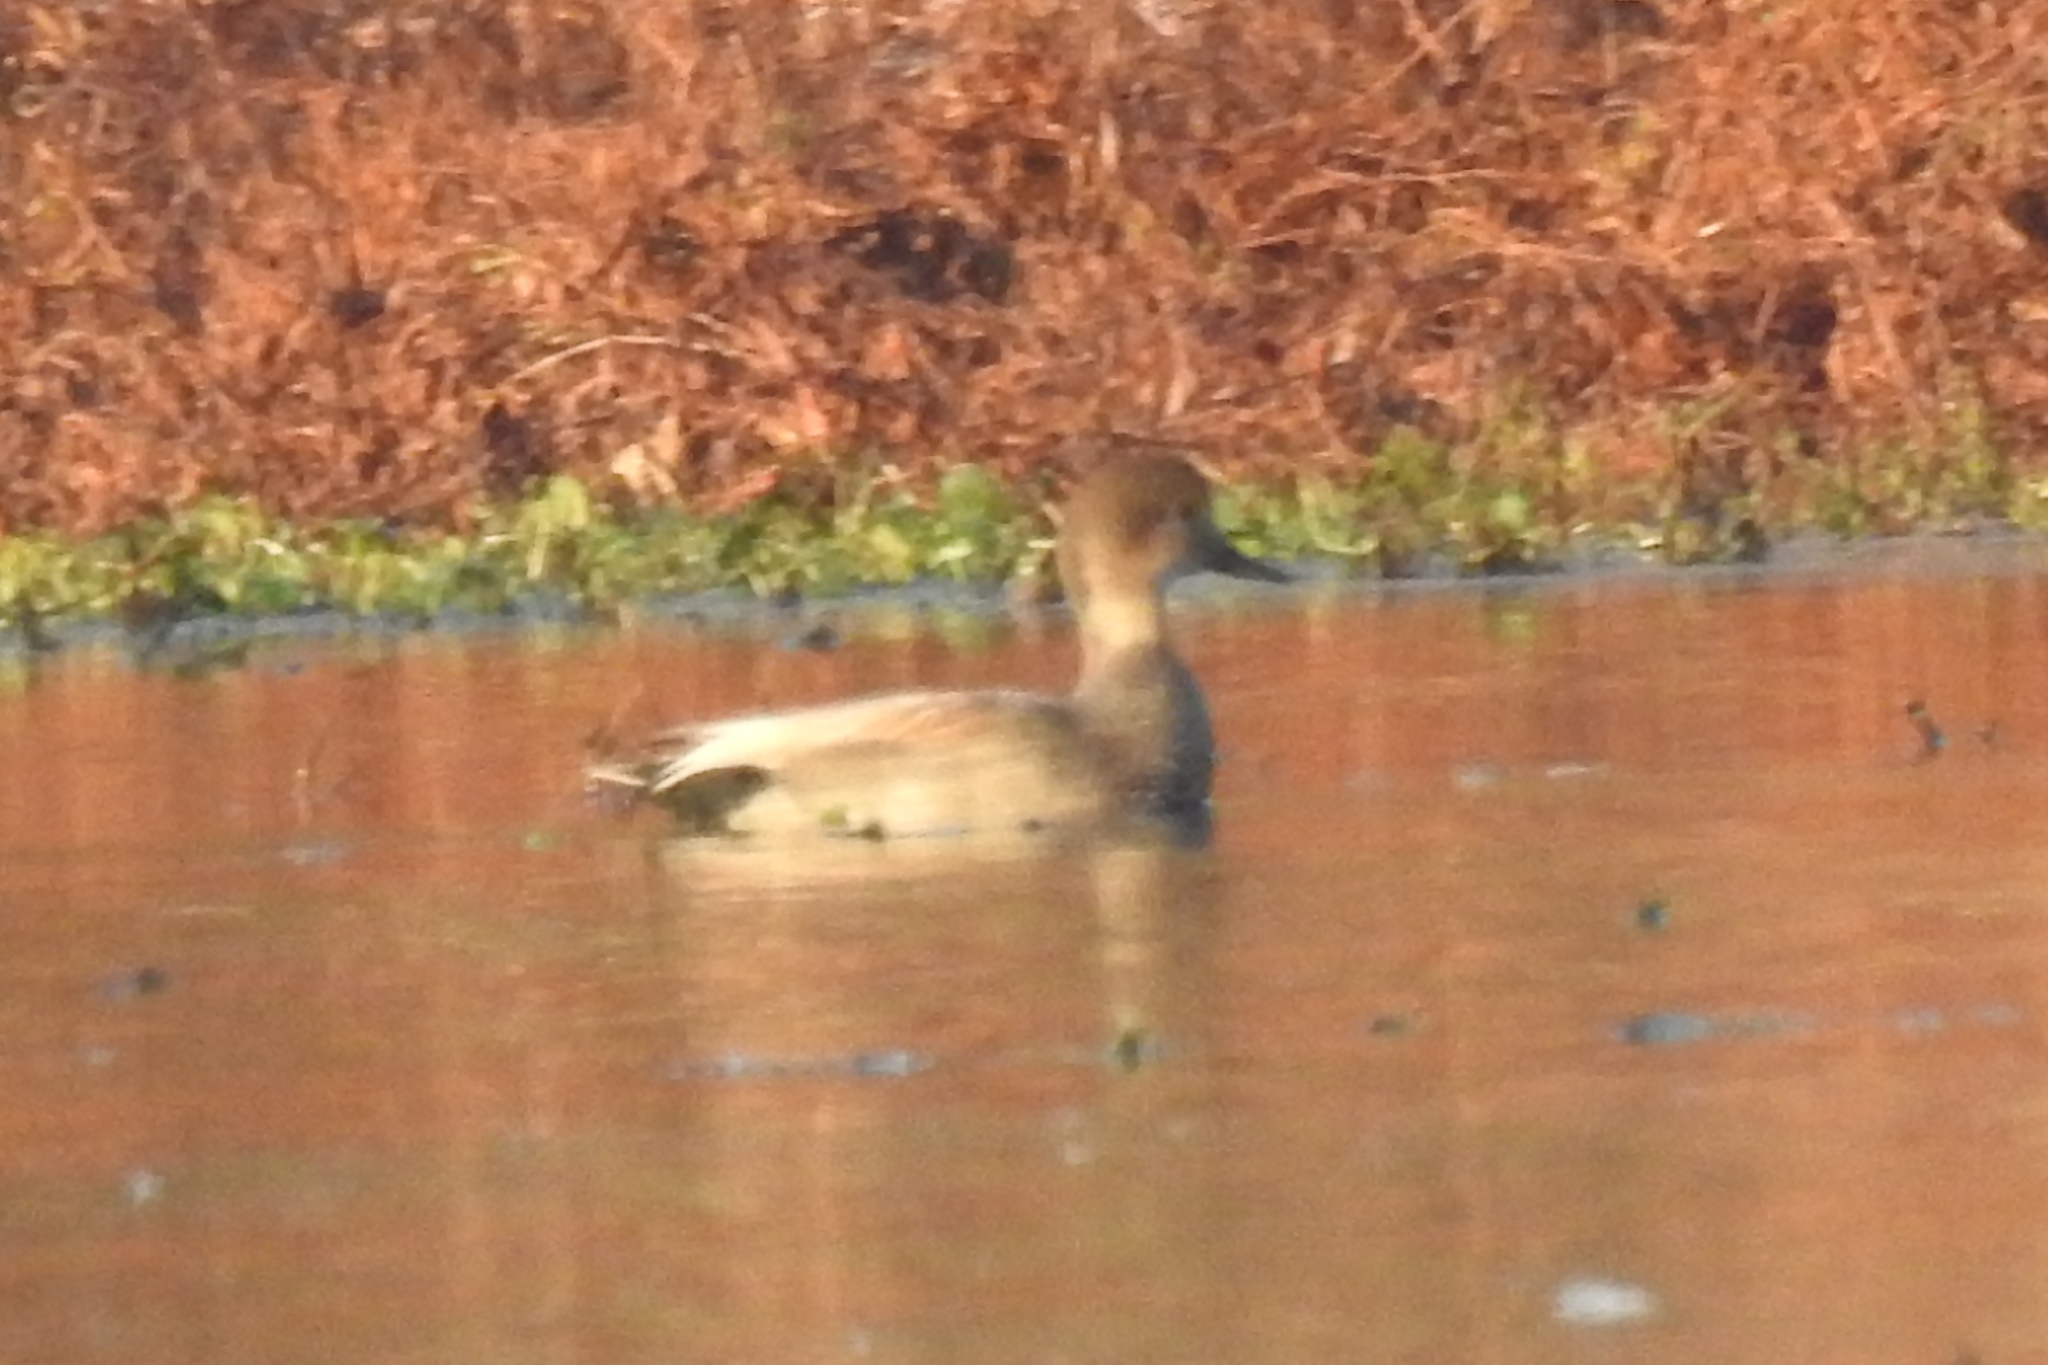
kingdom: Animalia
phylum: Chordata
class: Aves
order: Anseriformes
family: Anatidae
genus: Mareca
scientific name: Mareca strepera
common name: Gadwall
